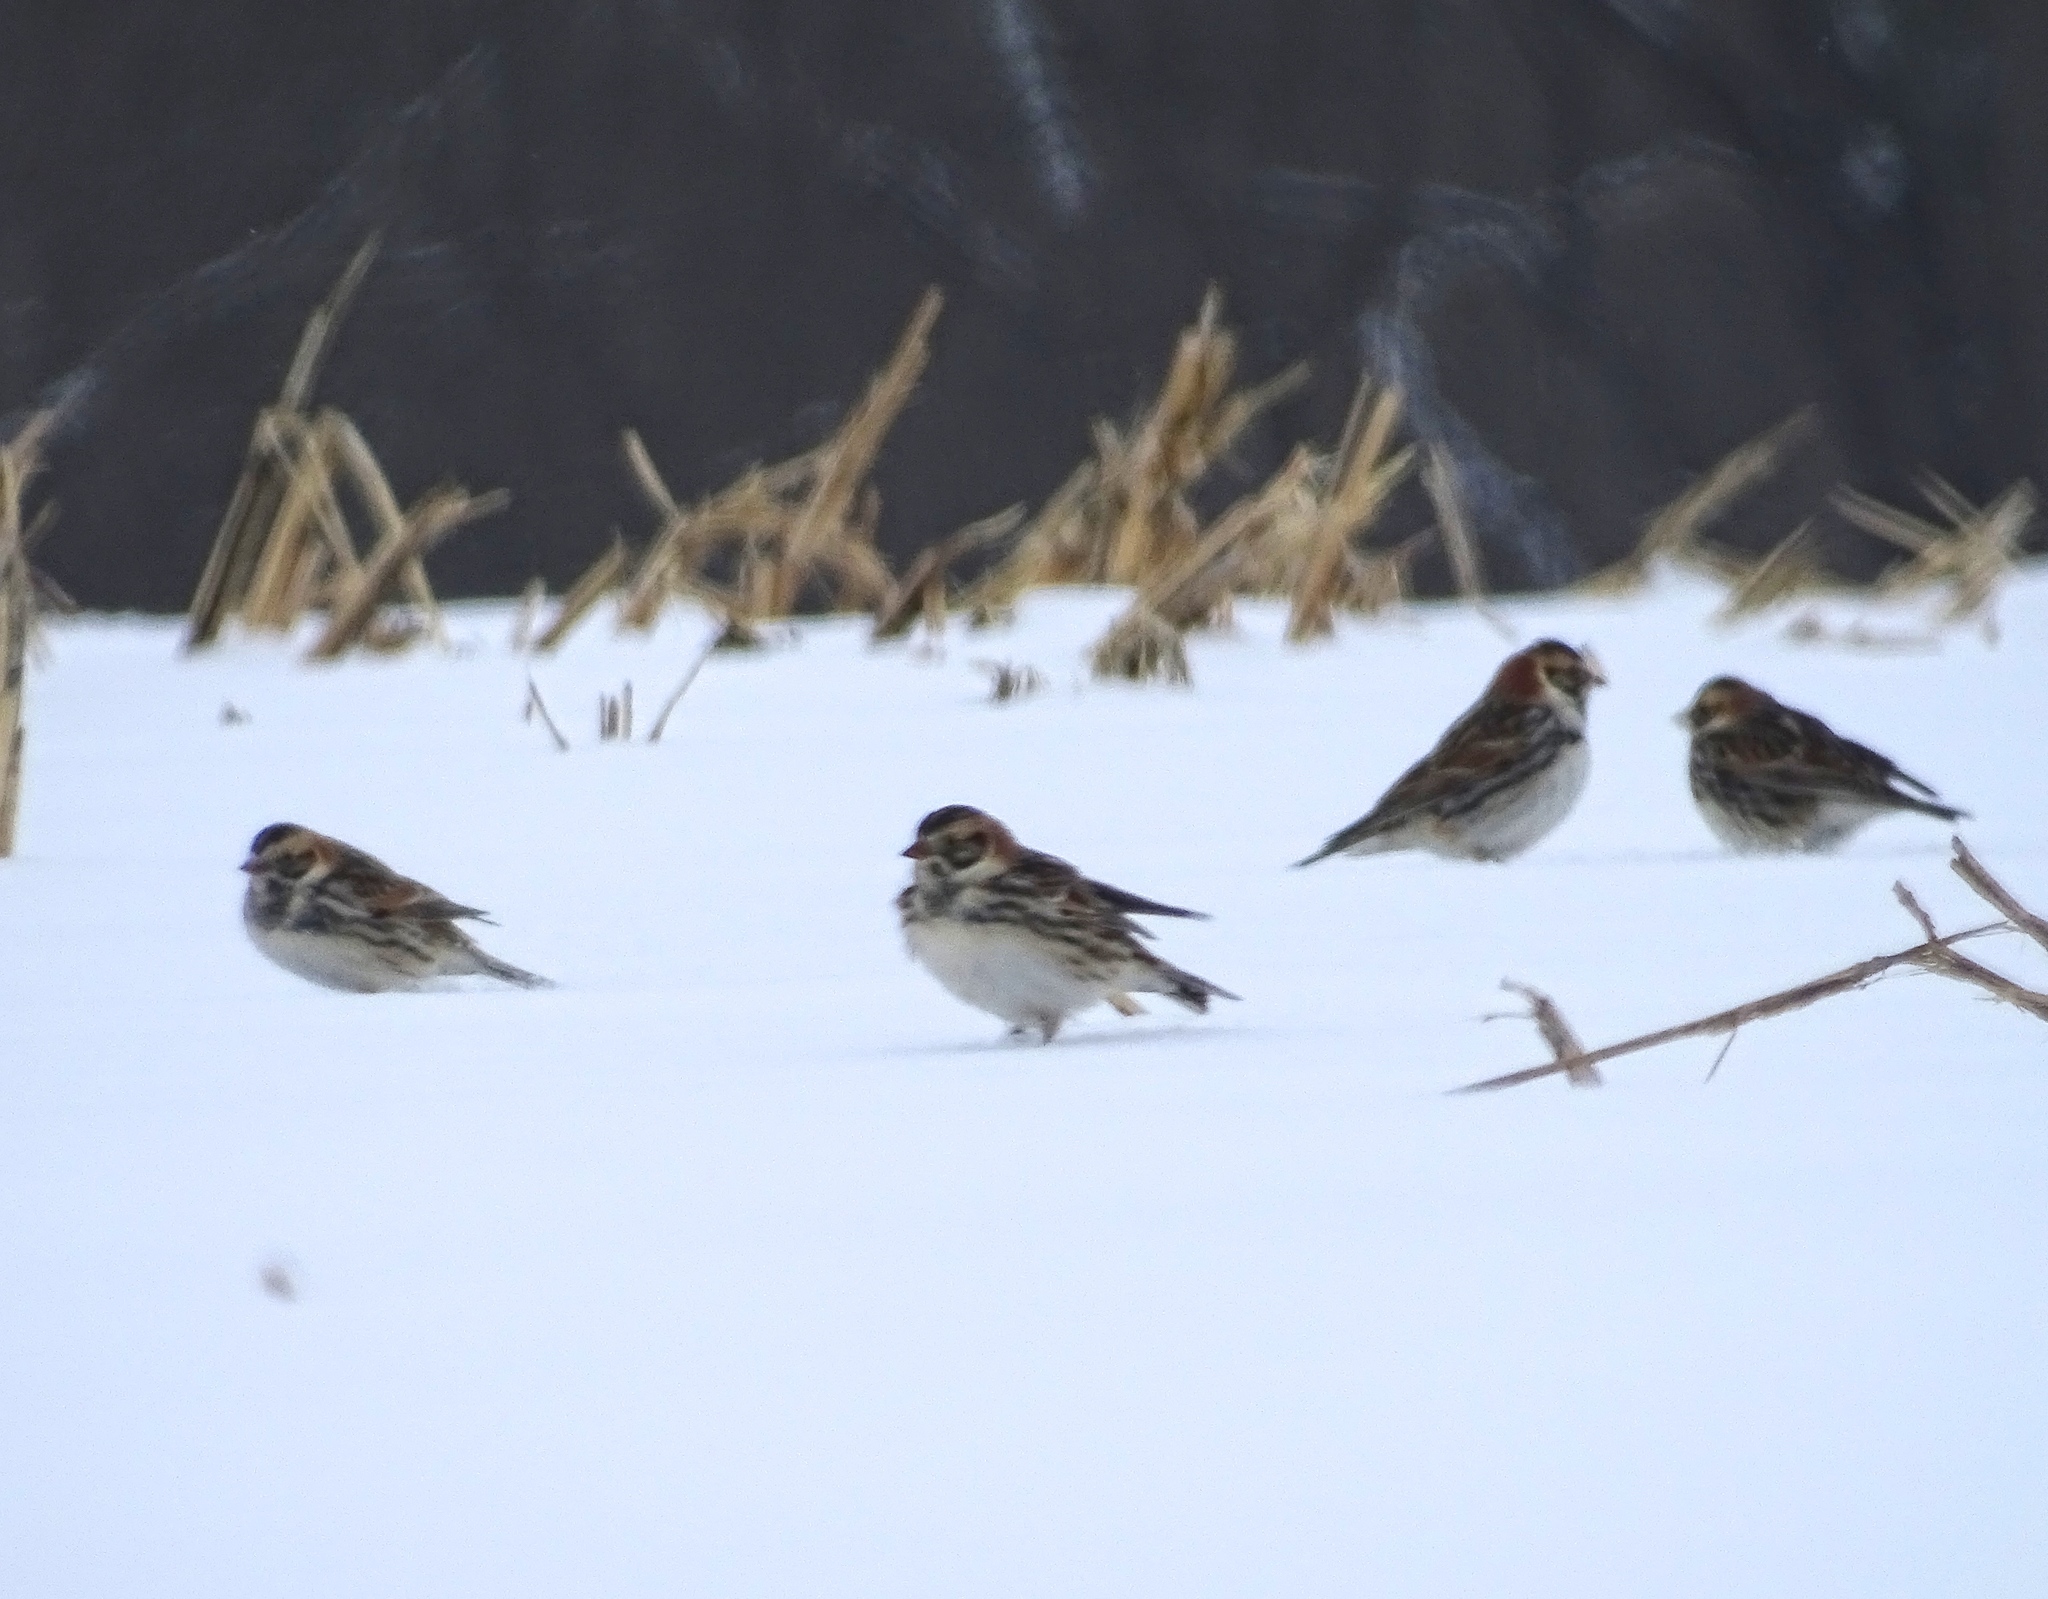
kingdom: Animalia
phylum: Chordata
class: Aves
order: Passeriformes
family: Calcariidae
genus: Calcarius
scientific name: Calcarius lapponicus
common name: Lapland longspur
